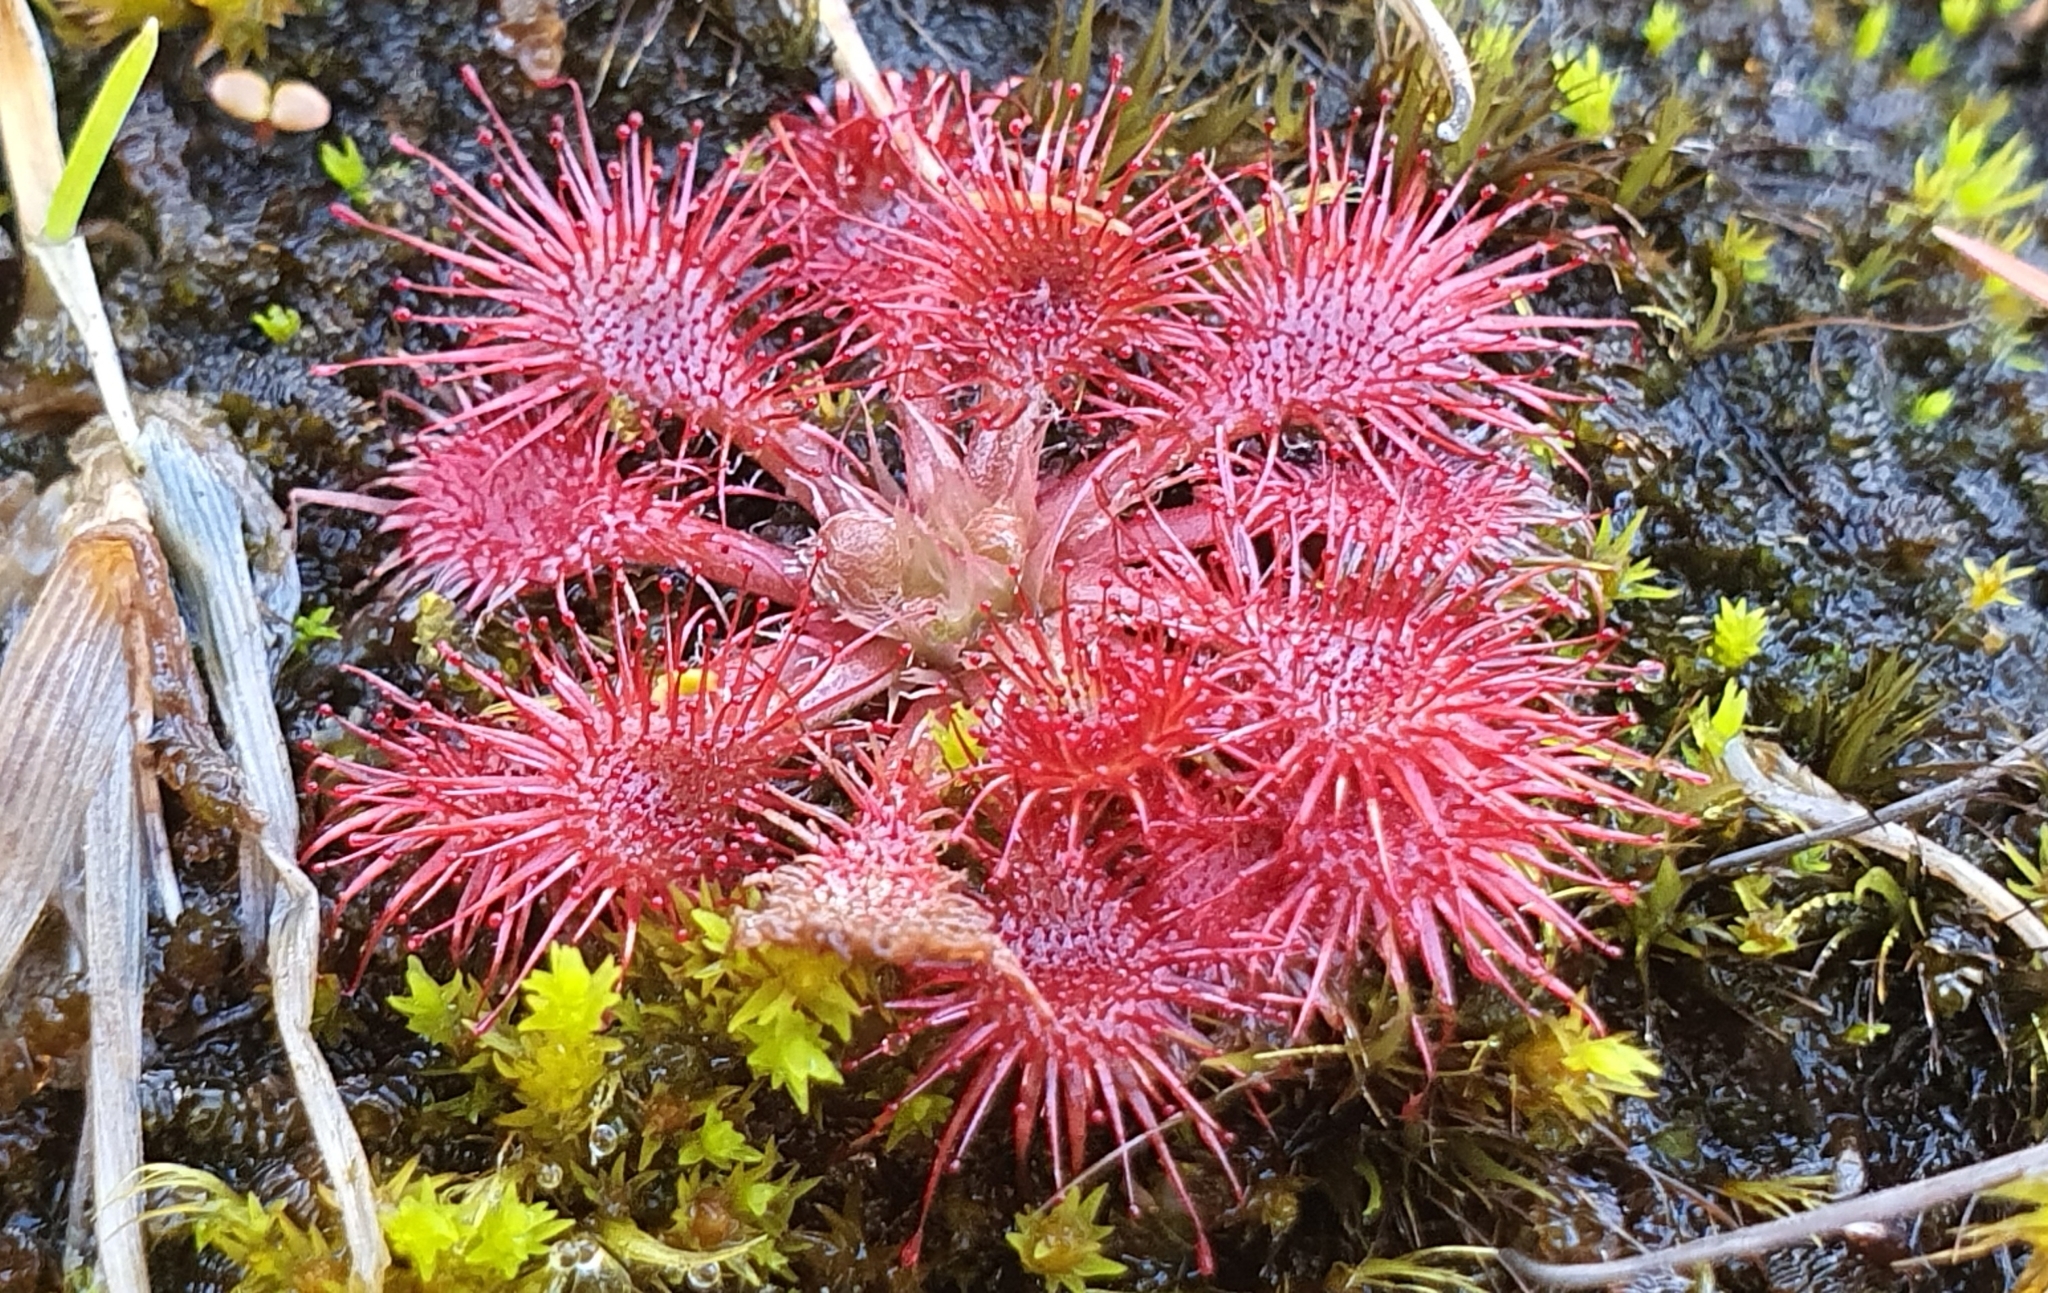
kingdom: Plantae
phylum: Tracheophyta
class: Magnoliopsida
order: Caryophyllales
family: Droseraceae
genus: Drosera
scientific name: Drosera spatulata
